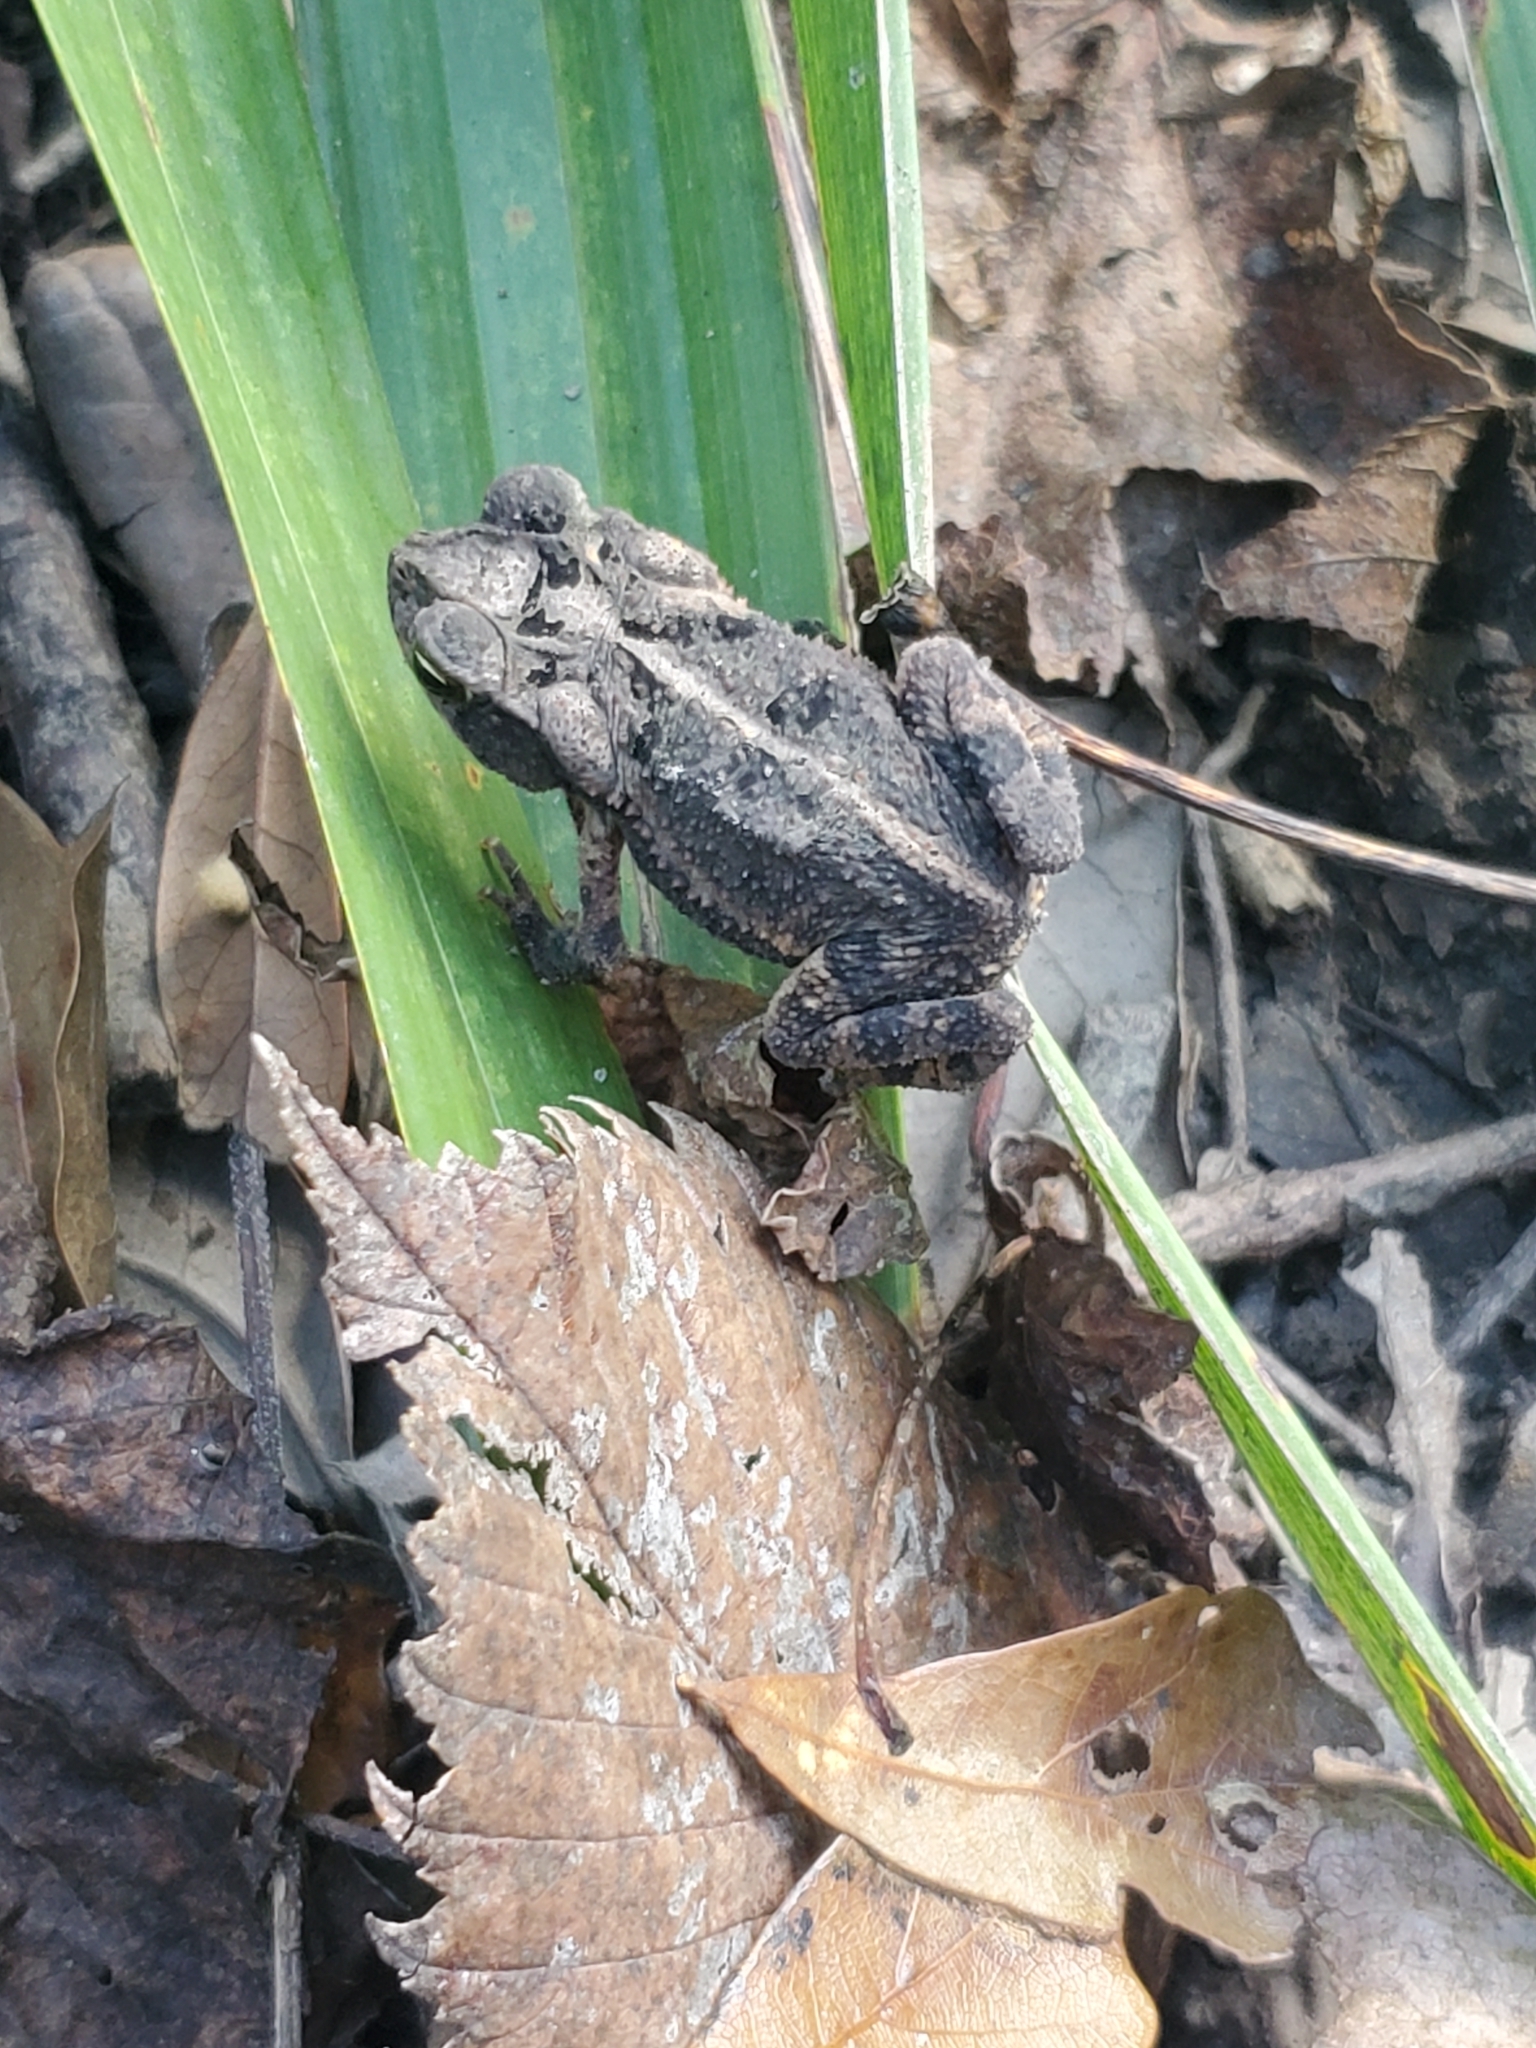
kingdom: Animalia
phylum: Chordata
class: Amphibia
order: Anura
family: Bufonidae
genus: Incilius
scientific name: Incilius nebulifer
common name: Gulf coast toad
